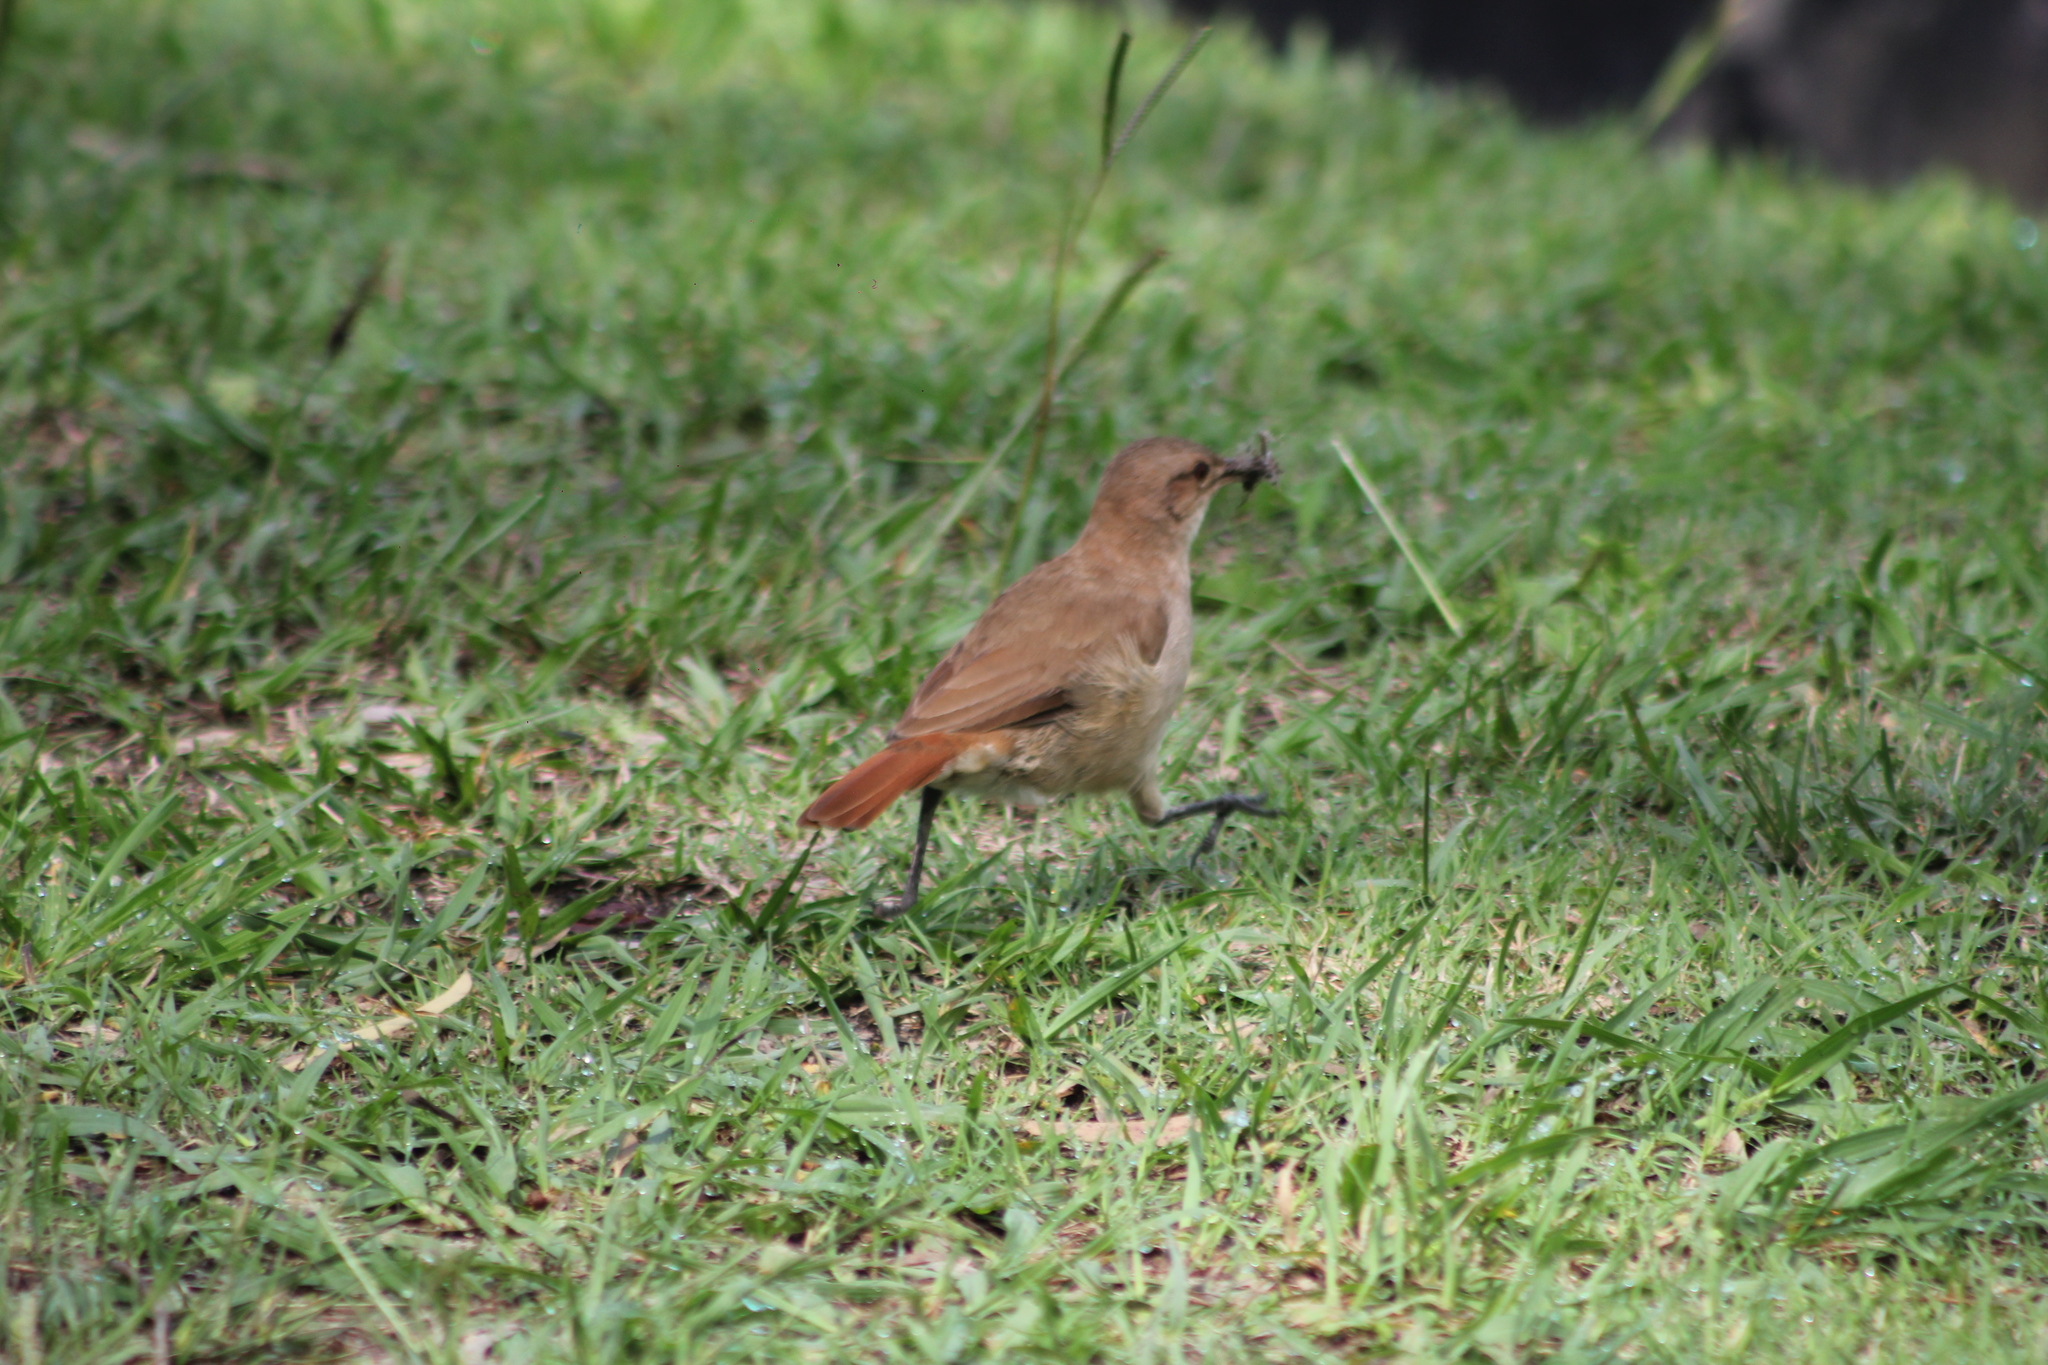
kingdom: Animalia
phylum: Chordata
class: Aves
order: Passeriformes
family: Furnariidae
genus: Furnarius
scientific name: Furnarius rufus
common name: Rufous hornero
